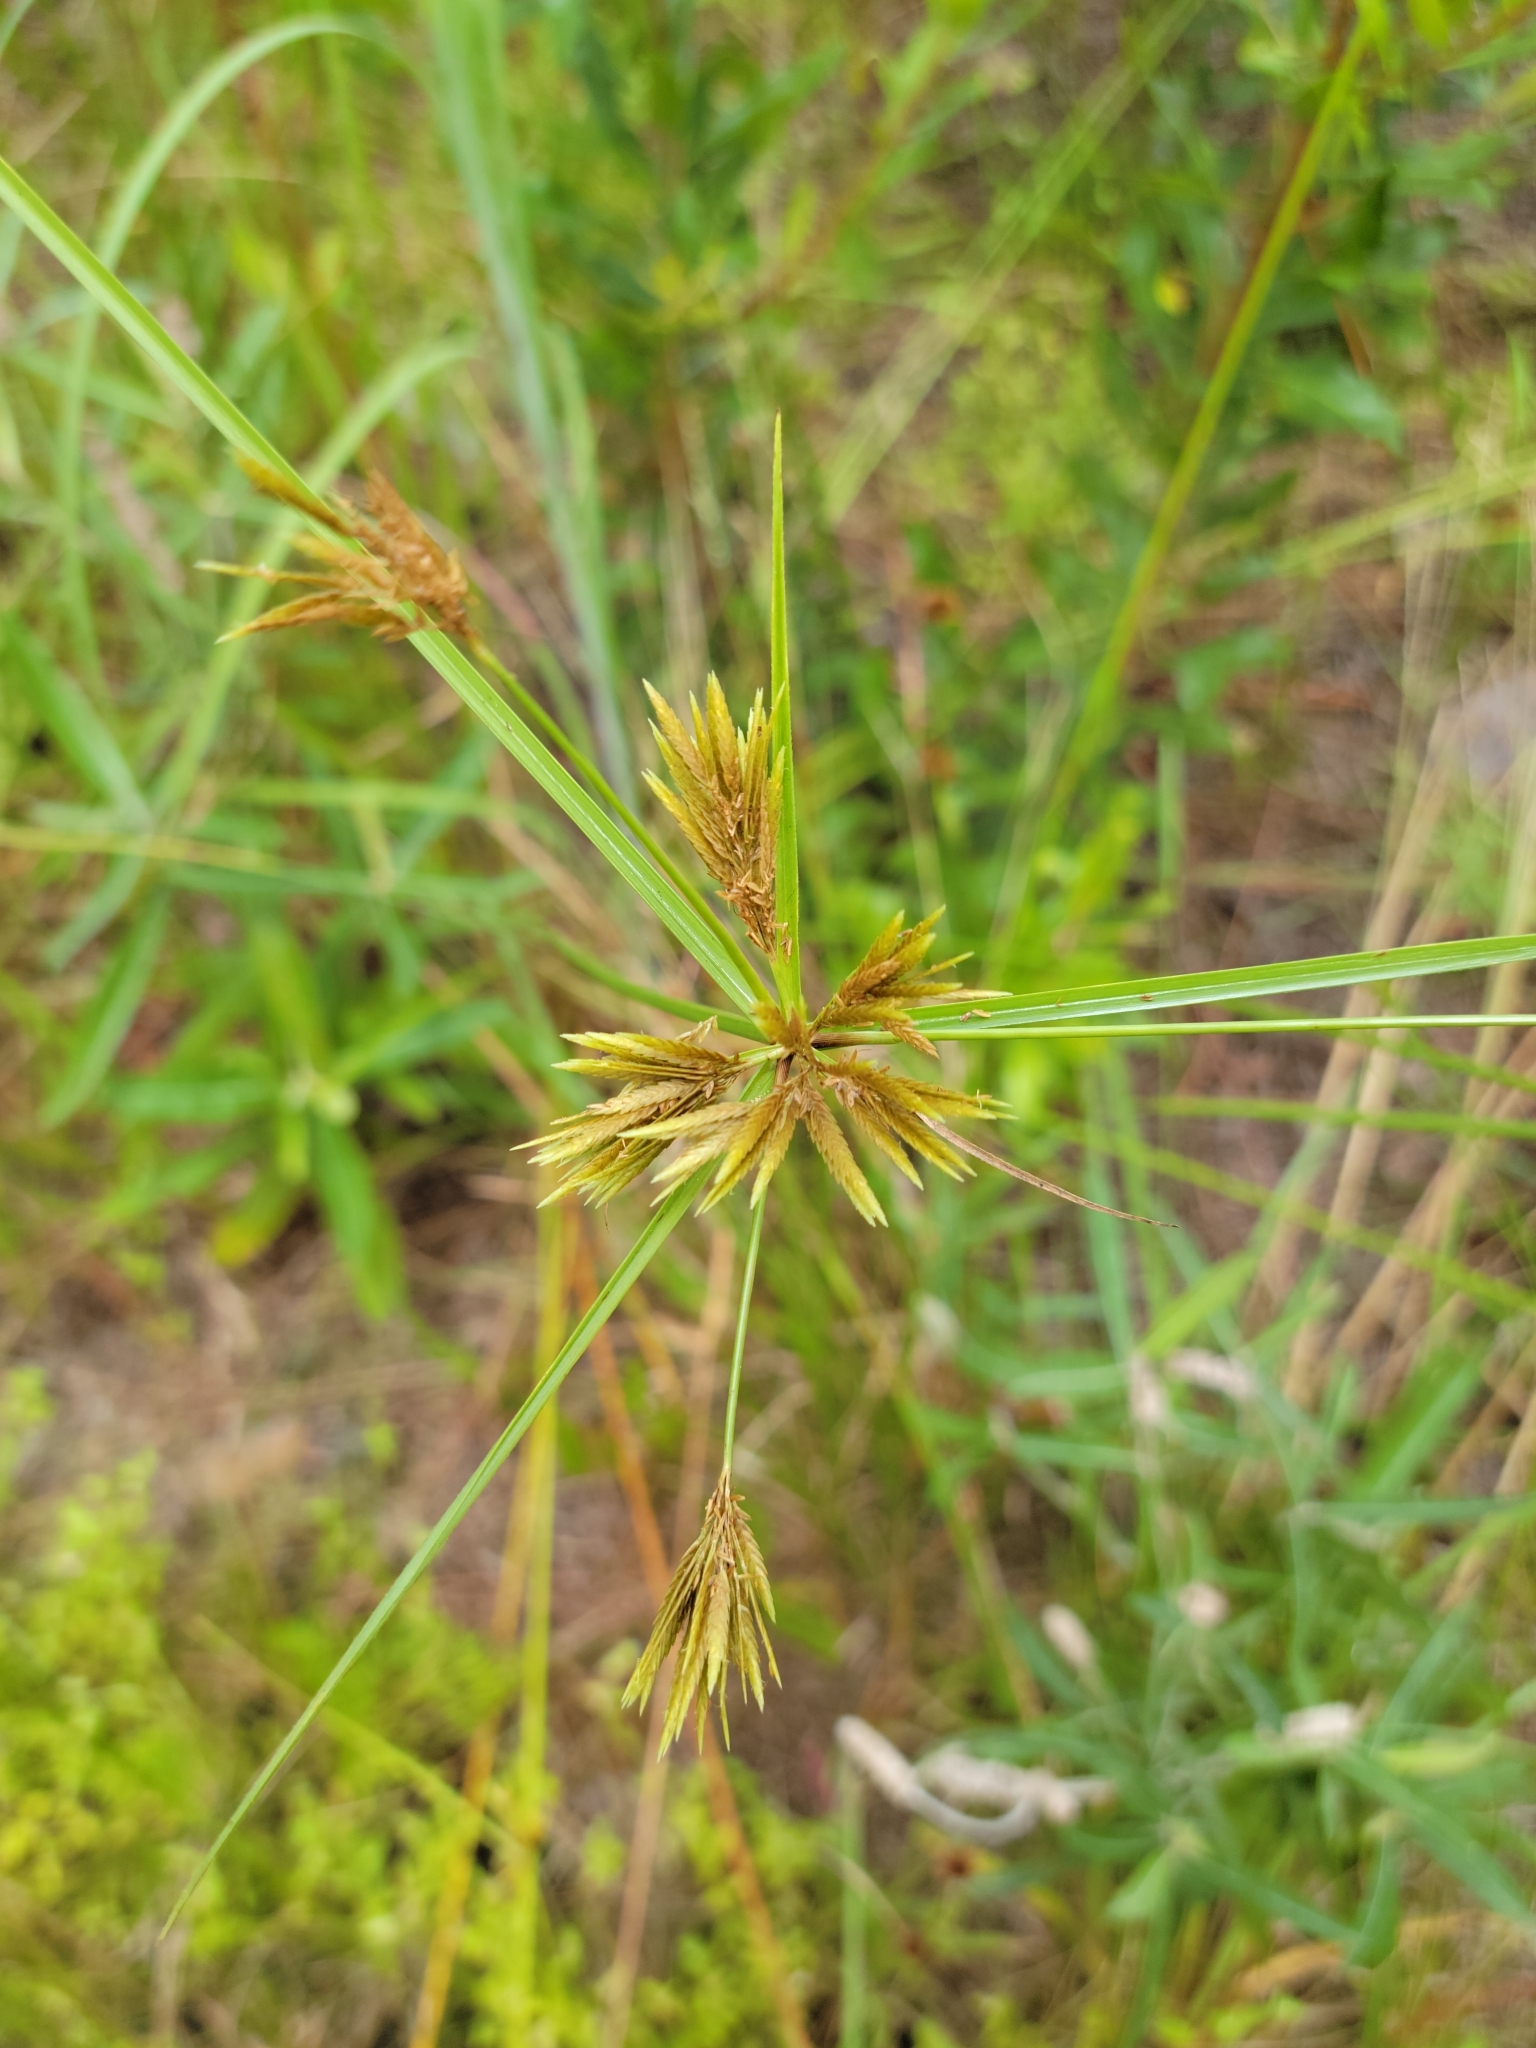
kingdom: Plantae
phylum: Tracheophyta
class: Liliopsida
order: Poales
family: Cyperaceae
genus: Cyperus
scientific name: Cyperus polystachyos
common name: Bunchy flat sedge
